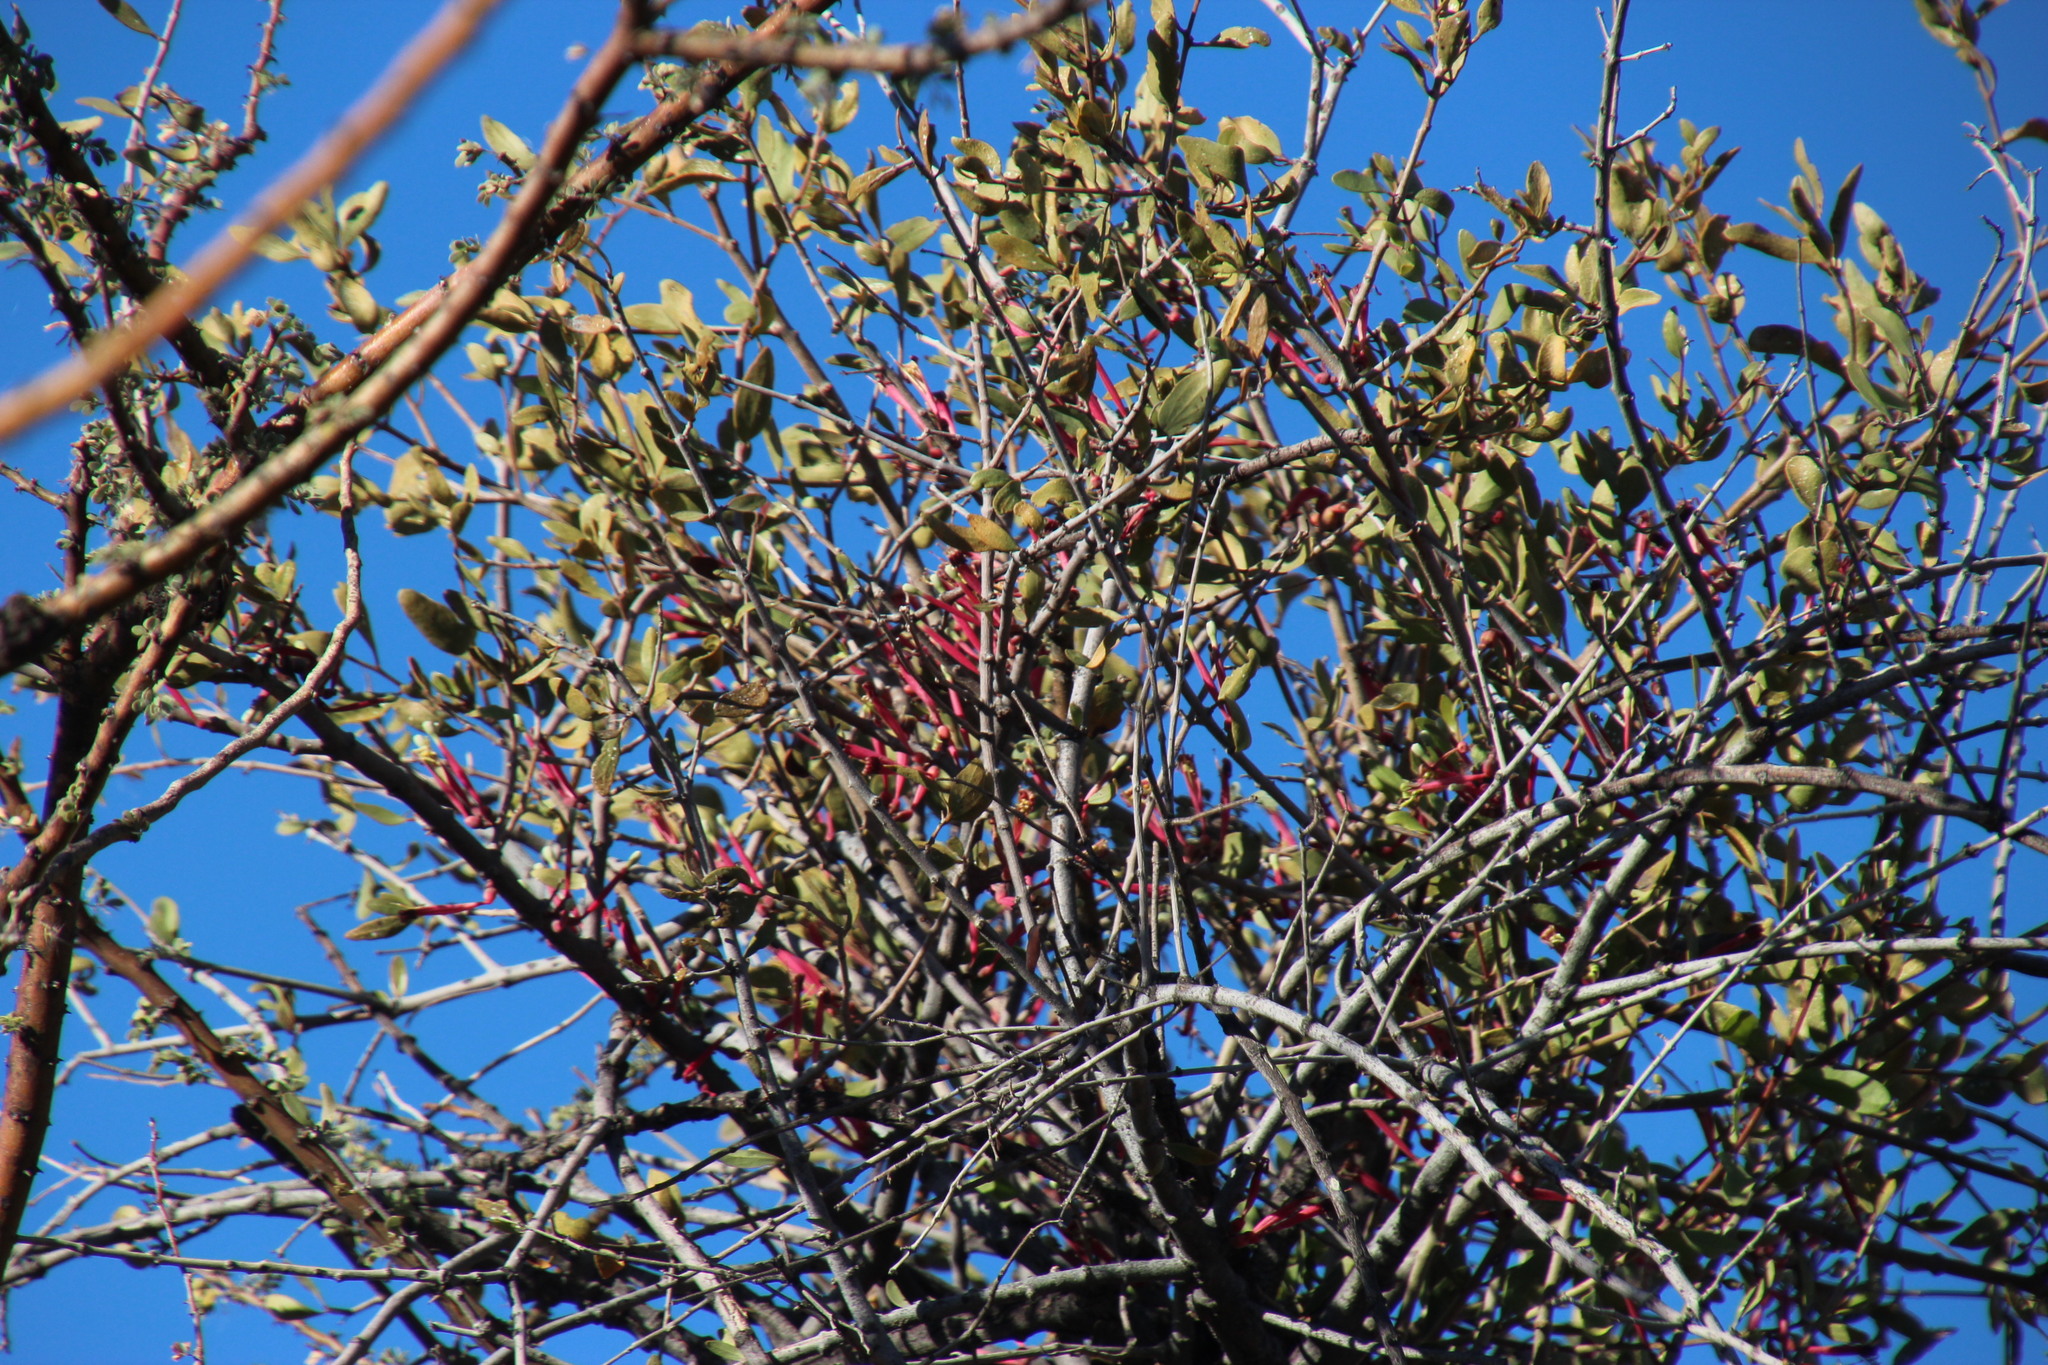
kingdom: Plantae
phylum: Tracheophyta
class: Magnoliopsida
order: Santalales
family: Loranthaceae
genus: Tapinanthus
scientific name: Tapinanthus oleifolius
